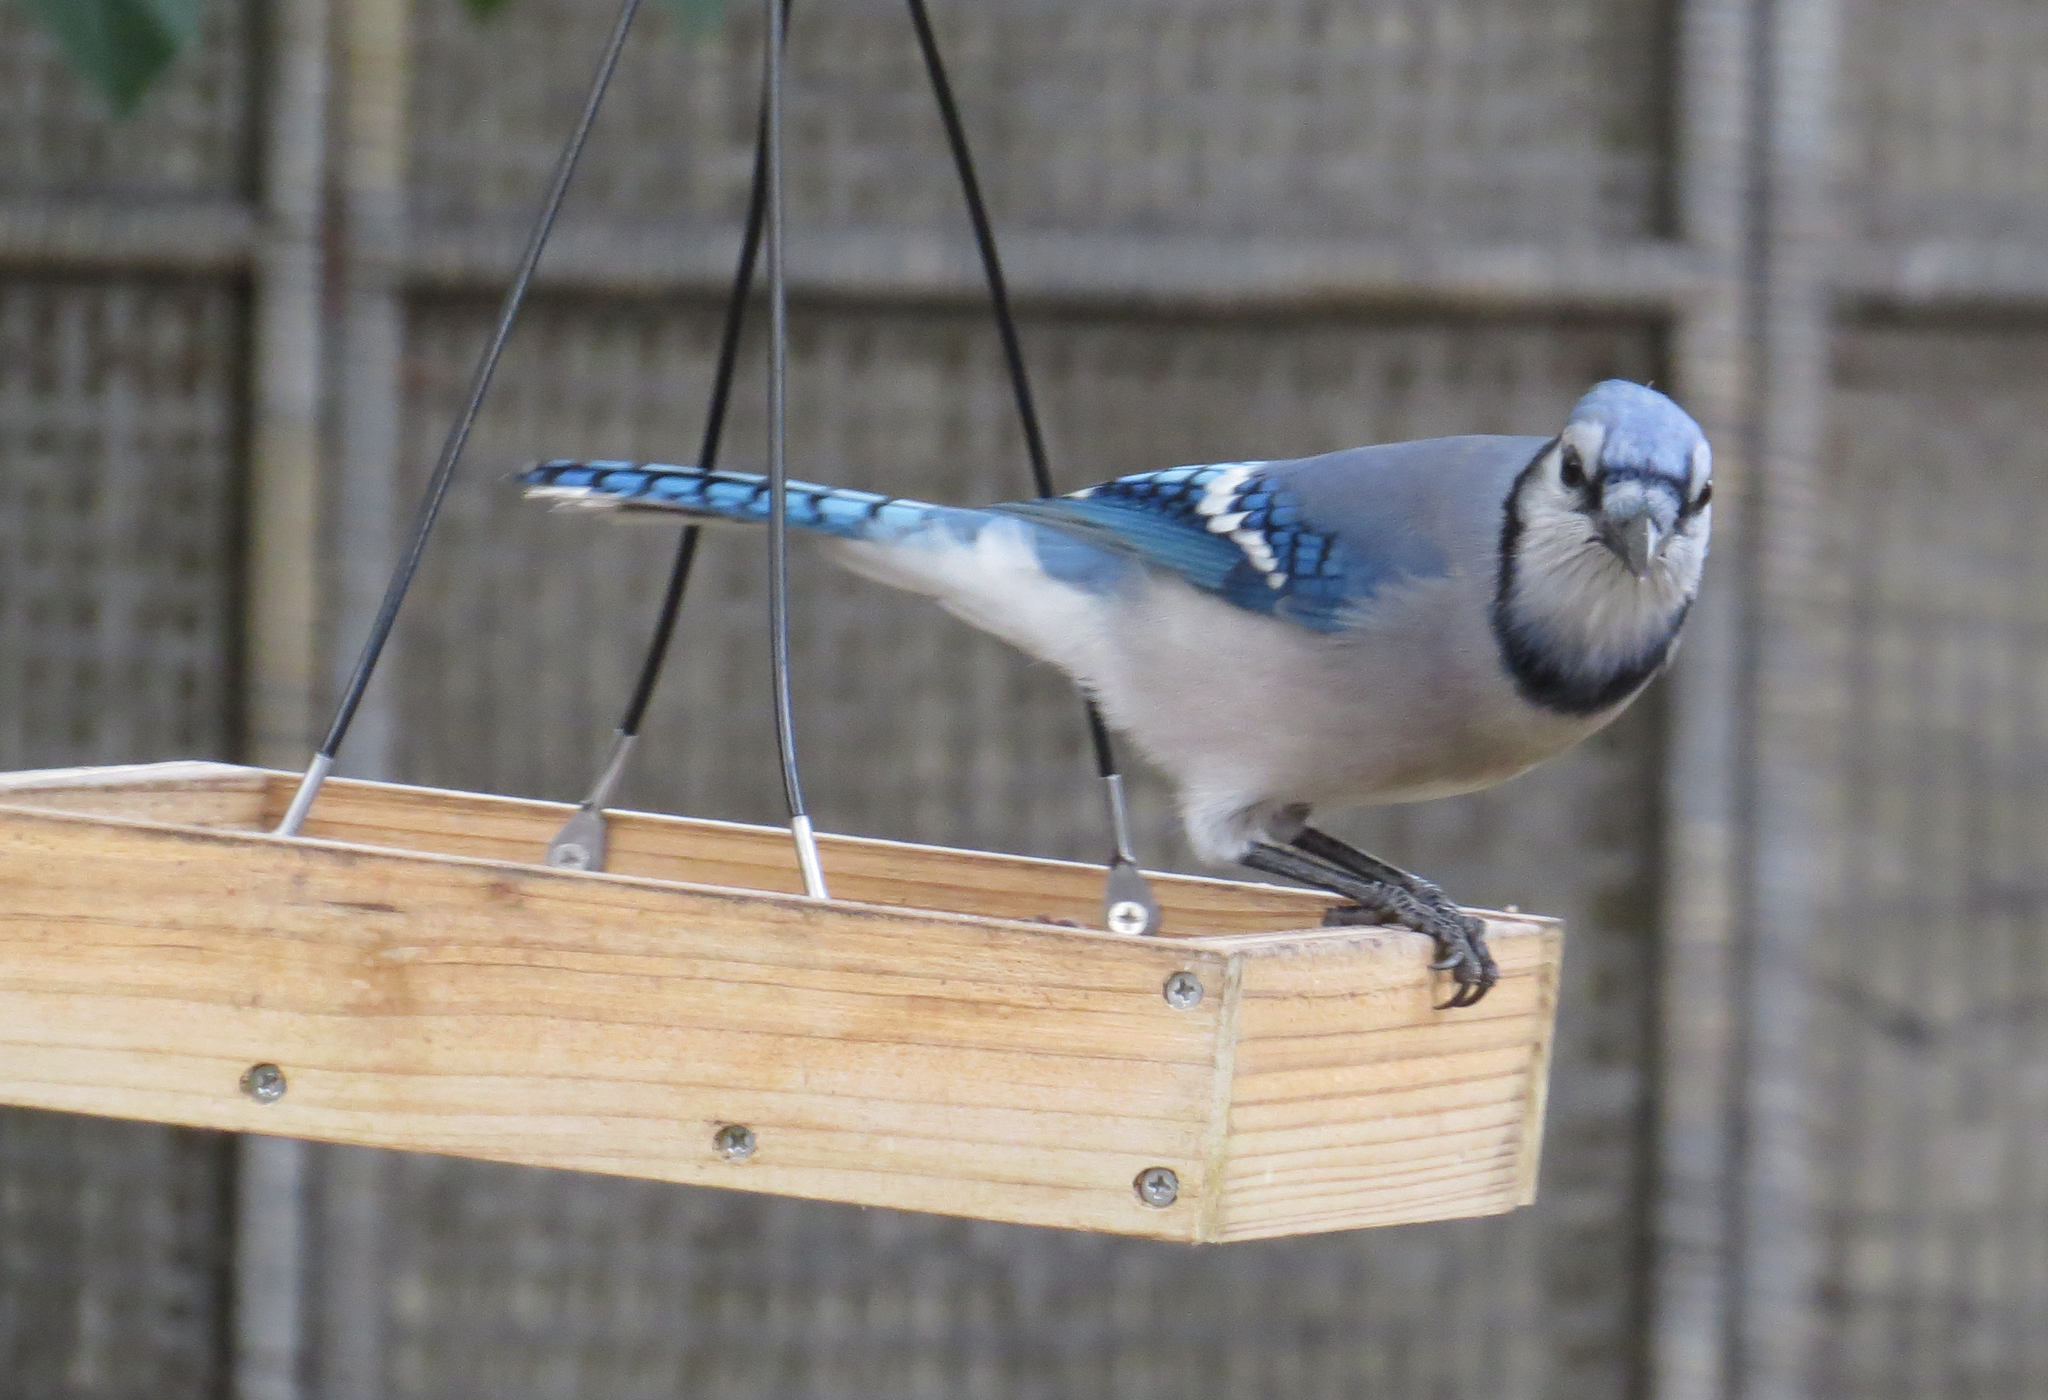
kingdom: Animalia
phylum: Chordata
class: Aves
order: Passeriformes
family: Corvidae
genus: Cyanocitta
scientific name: Cyanocitta cristata
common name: Blue jay
